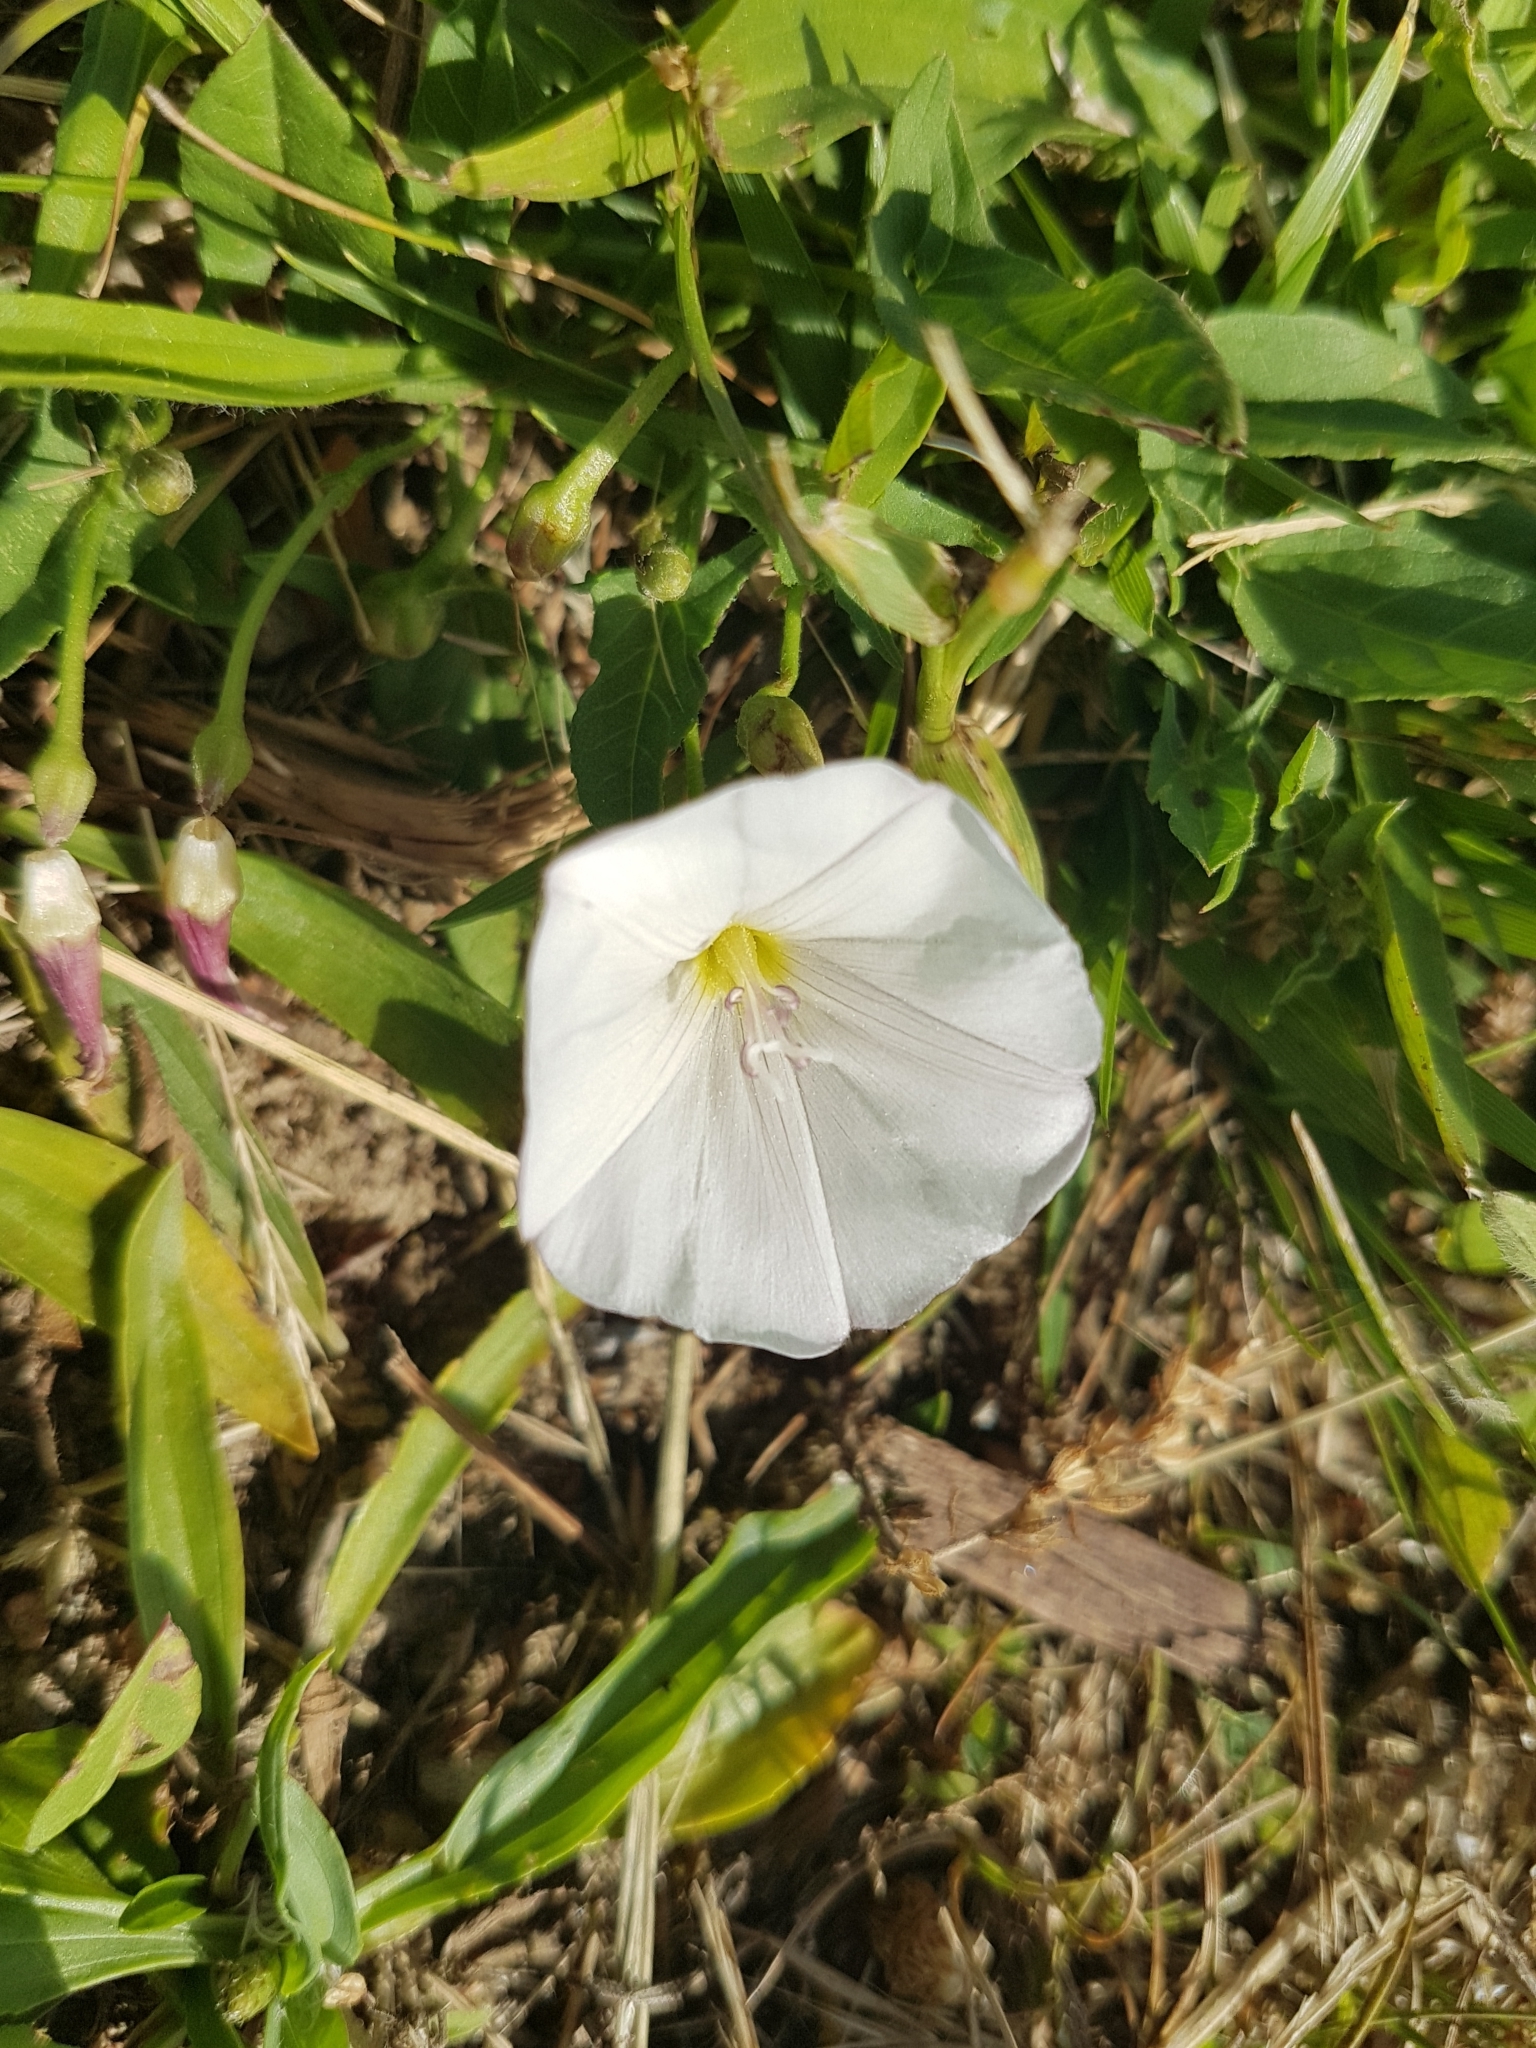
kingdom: Plantae
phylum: Tracheophyta
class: Magnoliopsida
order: Solanales
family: Convolvulaceae
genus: Convolvulus
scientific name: Convolvulus arvensis
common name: Field bindweed
